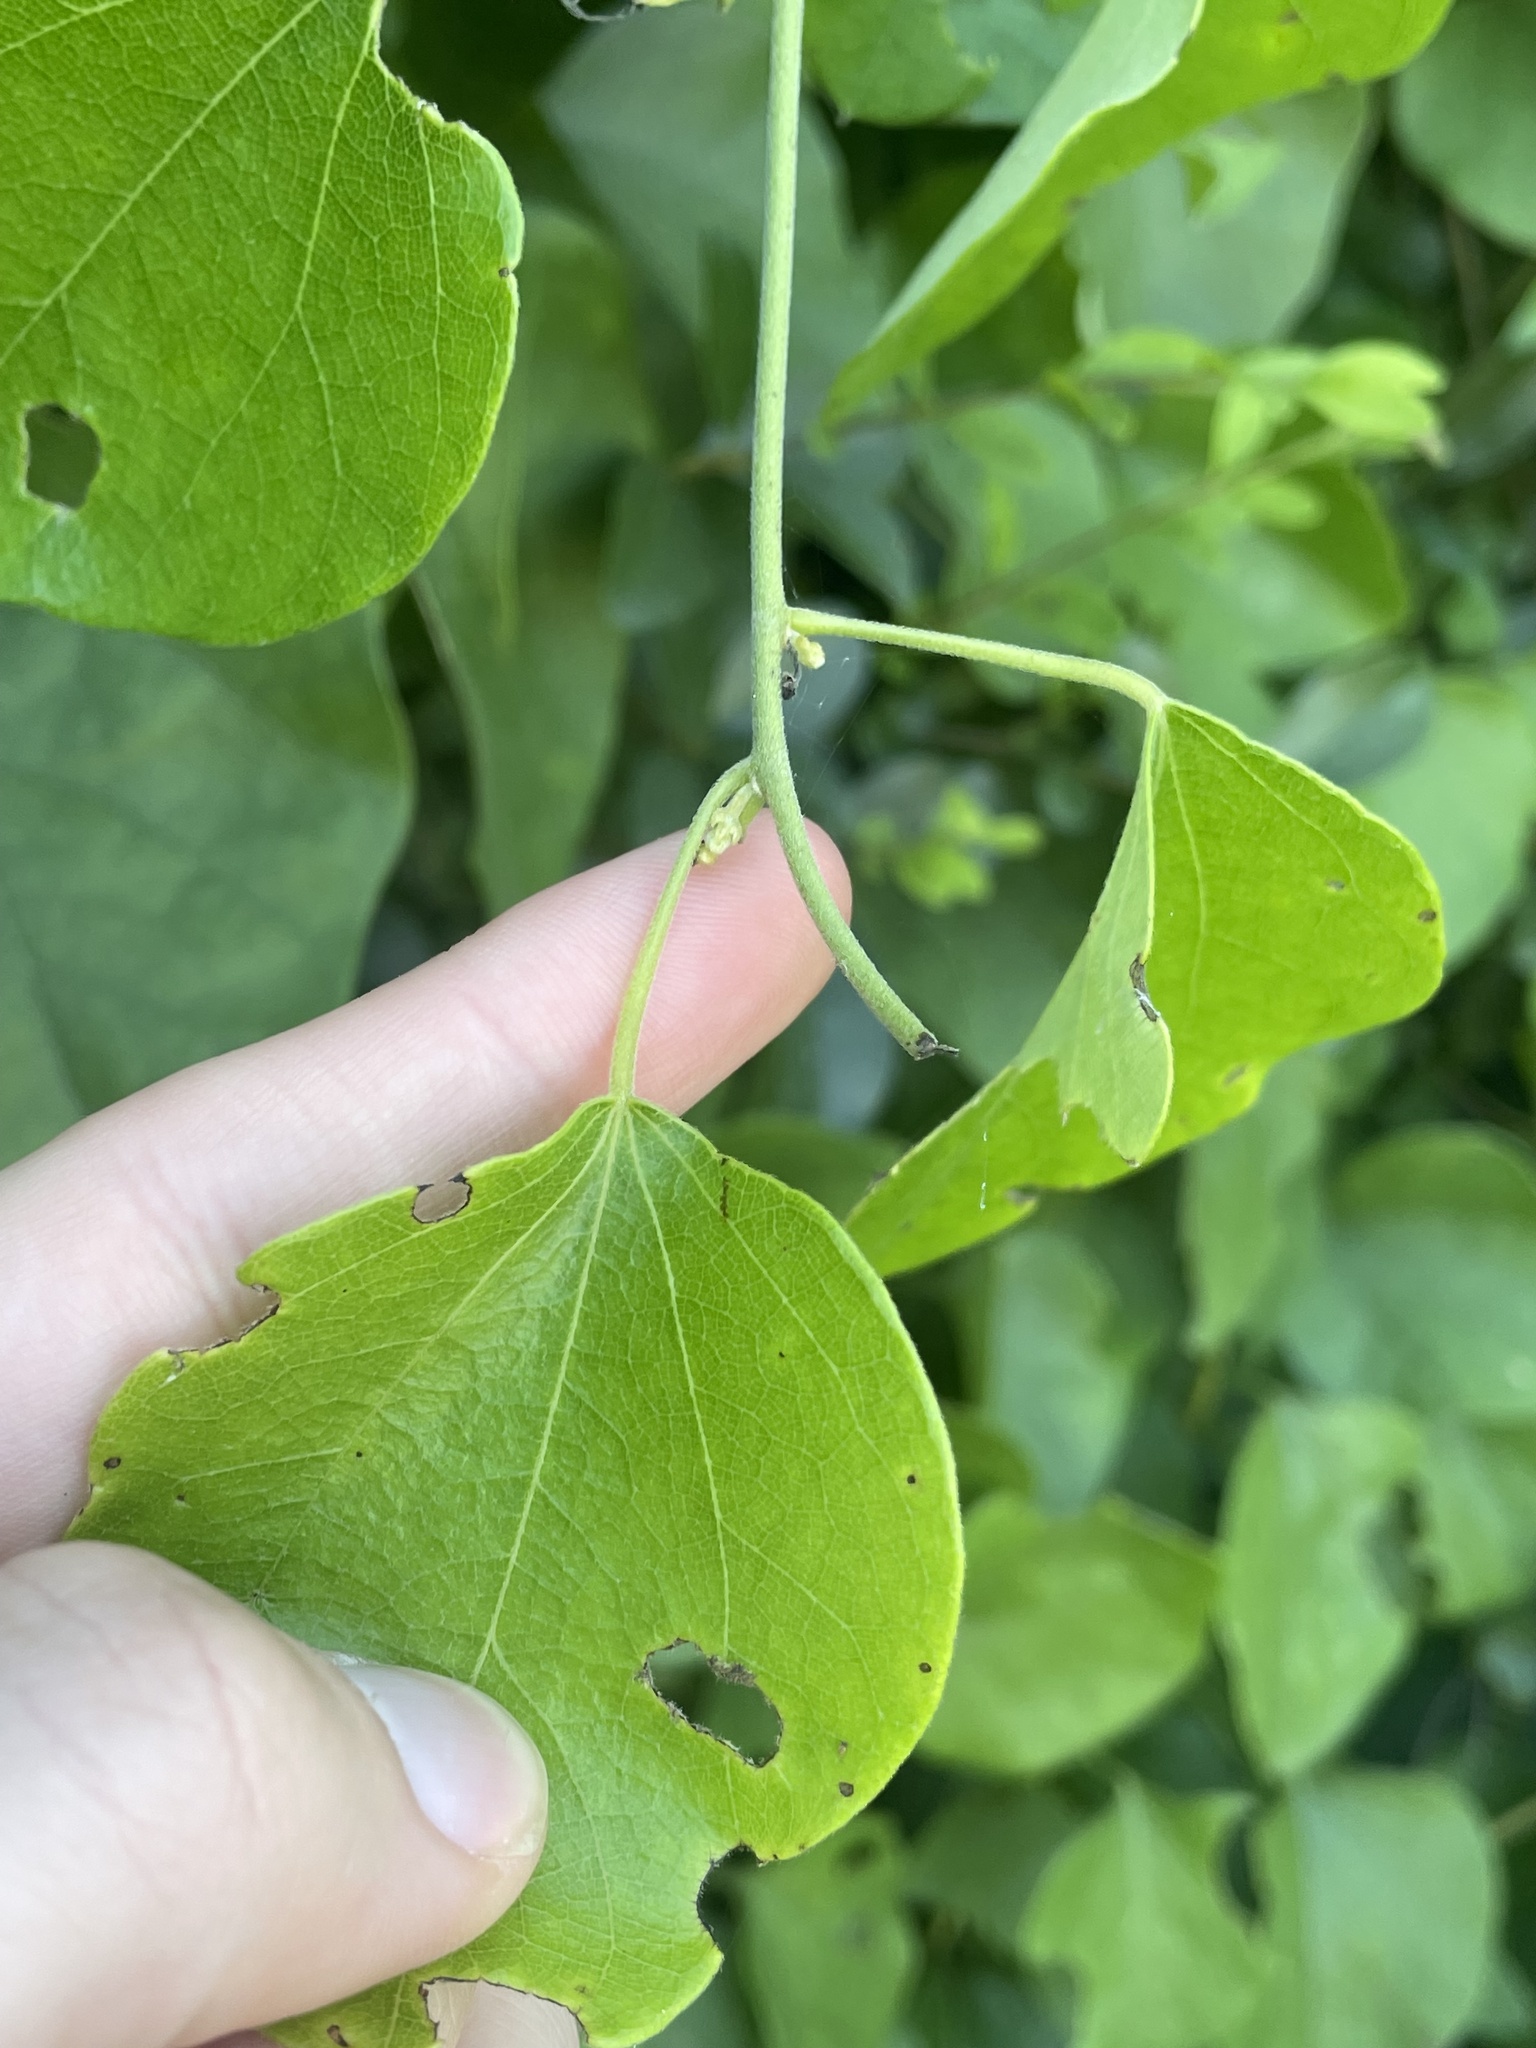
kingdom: Plantae
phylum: Tracheophyta
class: Magnoliopsida
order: Ranunculales
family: Menispermaceae
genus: Cocculus
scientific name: Cocculus carolinus
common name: Carolina moonseed
